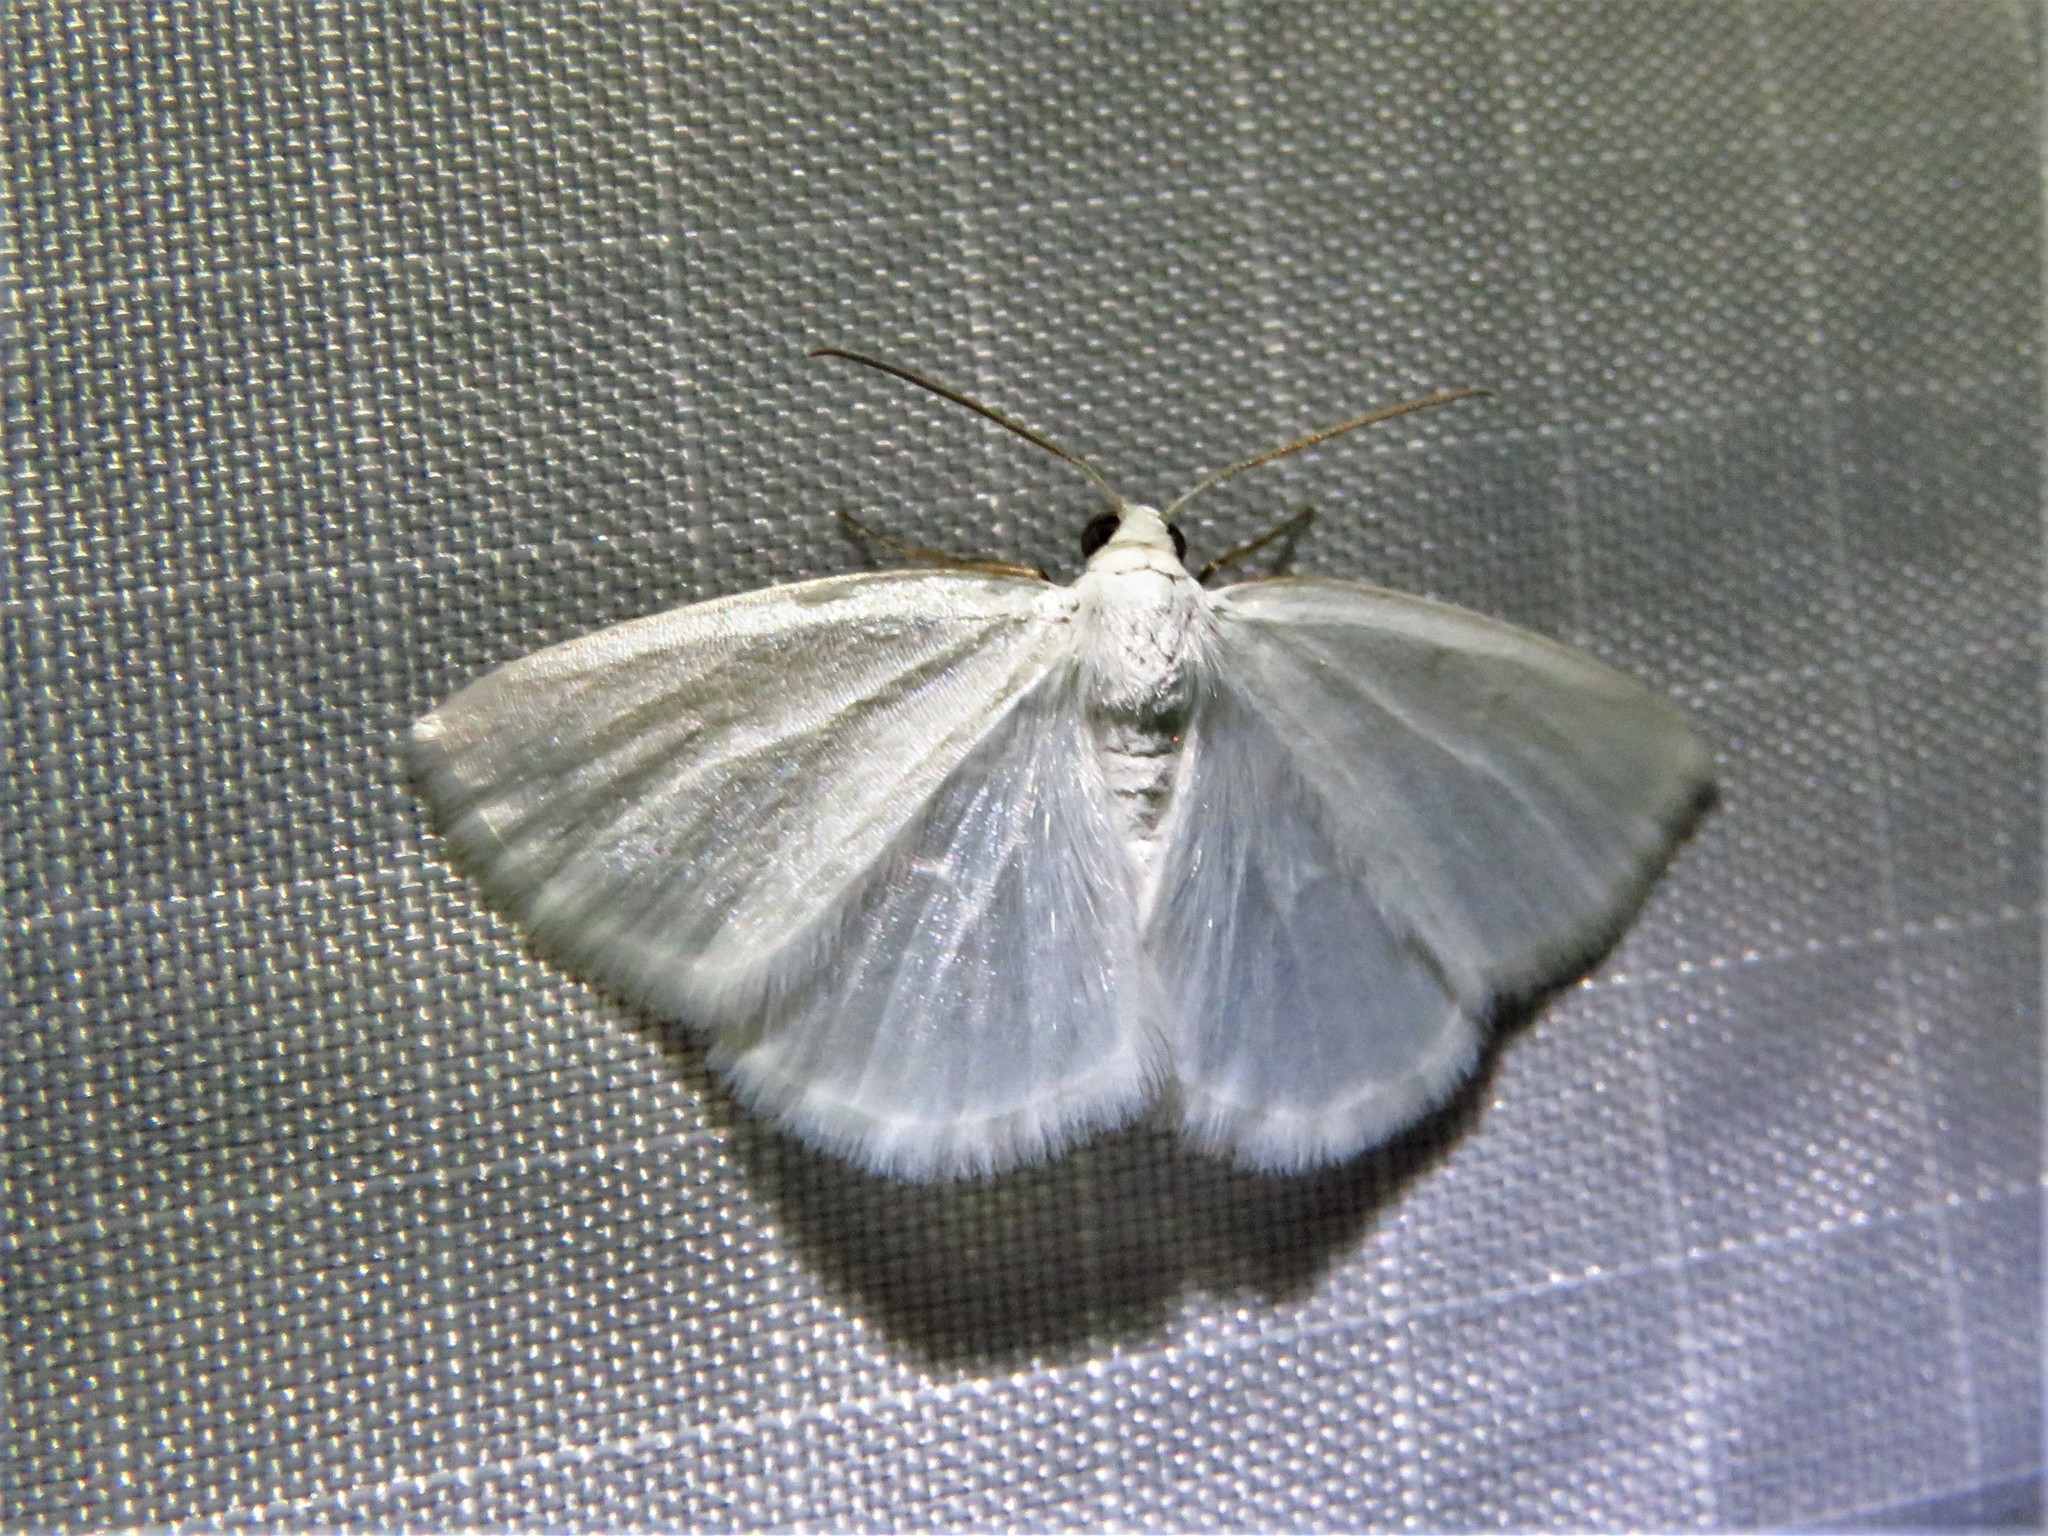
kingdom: Animalia
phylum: Arthropoda
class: Insecta
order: Lepidoptera
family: Geometridae
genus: Lomographa
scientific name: Lomographa vestaliata
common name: White spring moth
